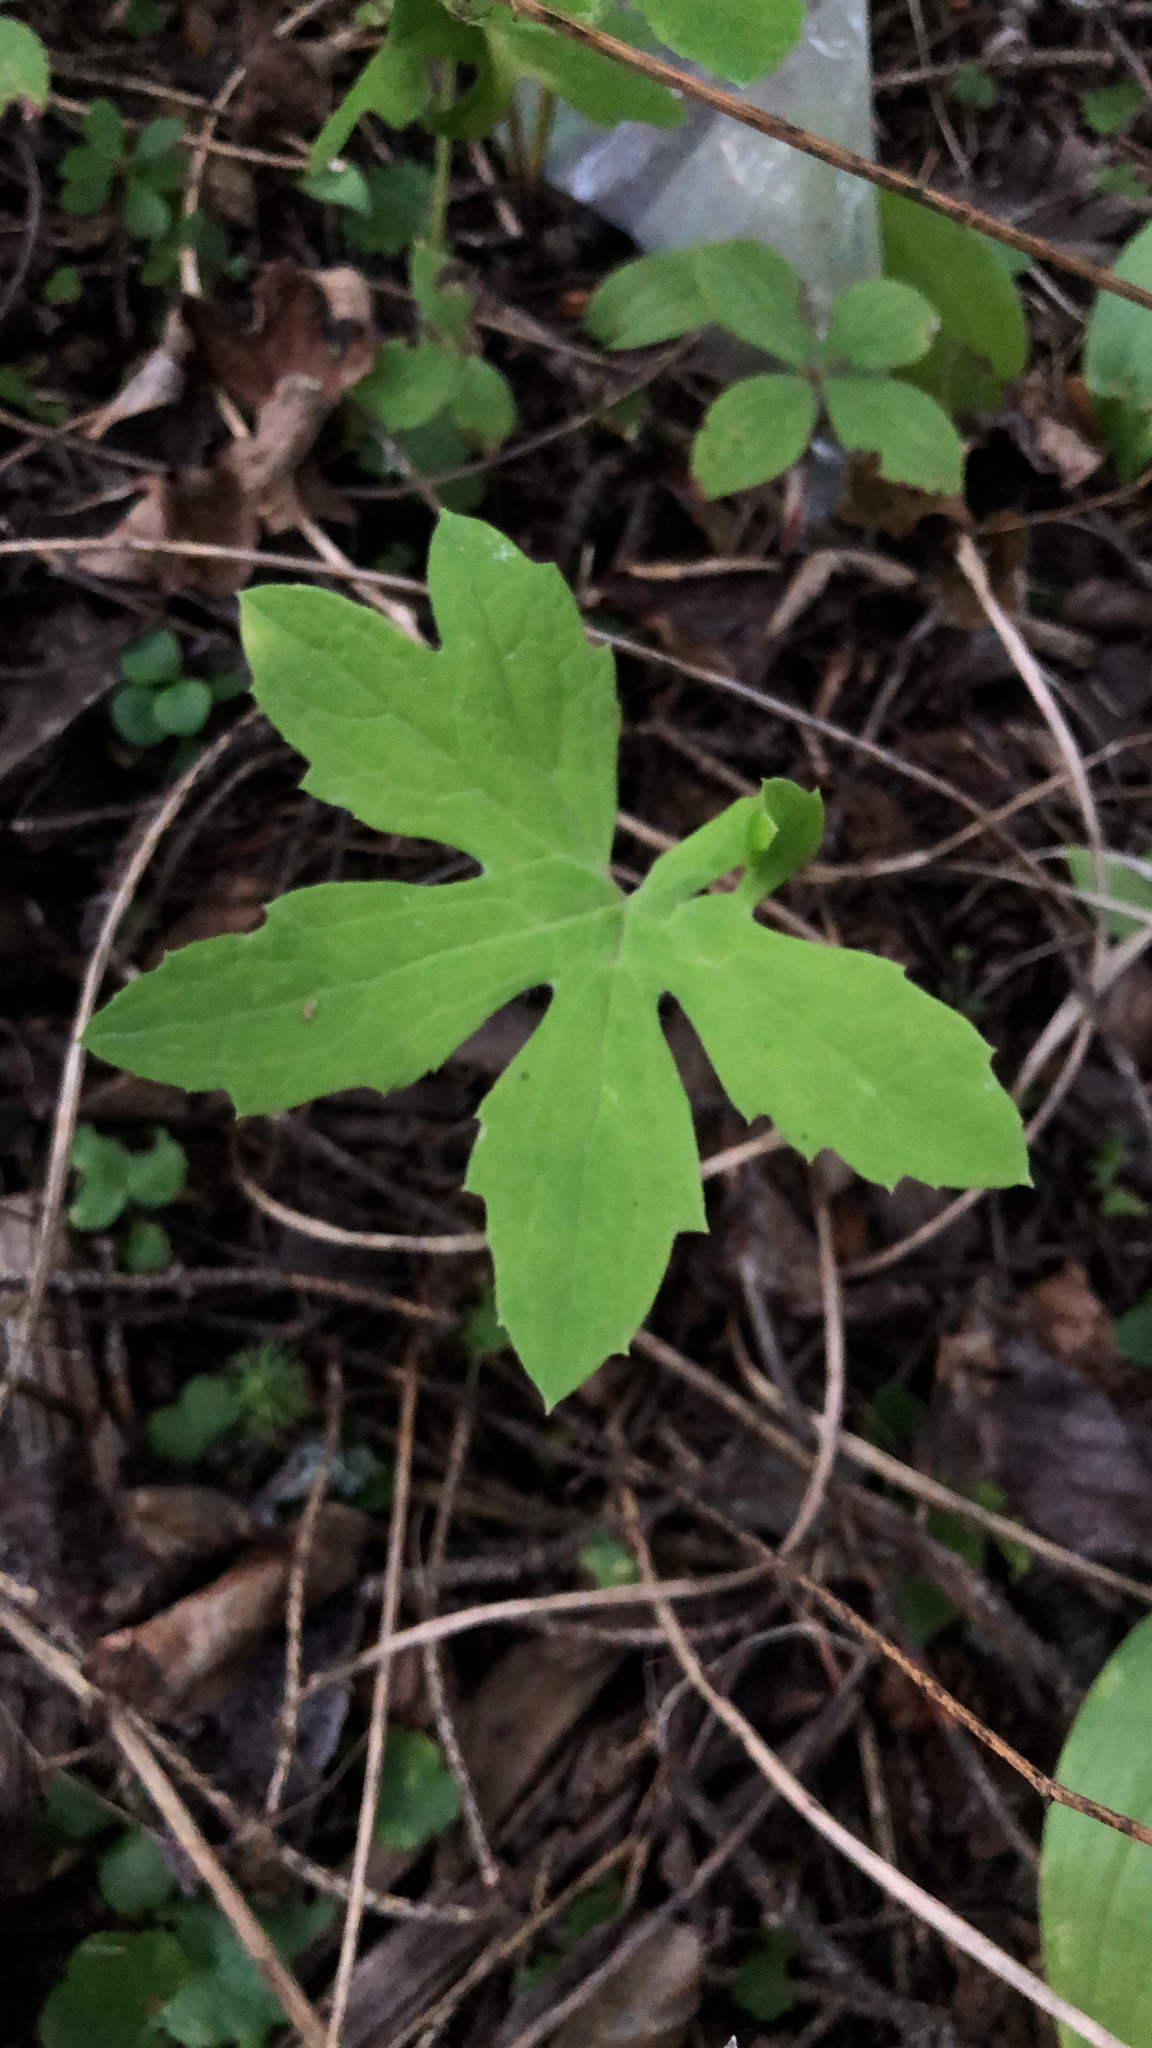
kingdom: Plantae
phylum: Tracheophyta
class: Magnoliopsida
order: Asterales
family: Asteraceae
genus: Petasites
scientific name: Petasites frigidus
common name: Arctic butterbur
